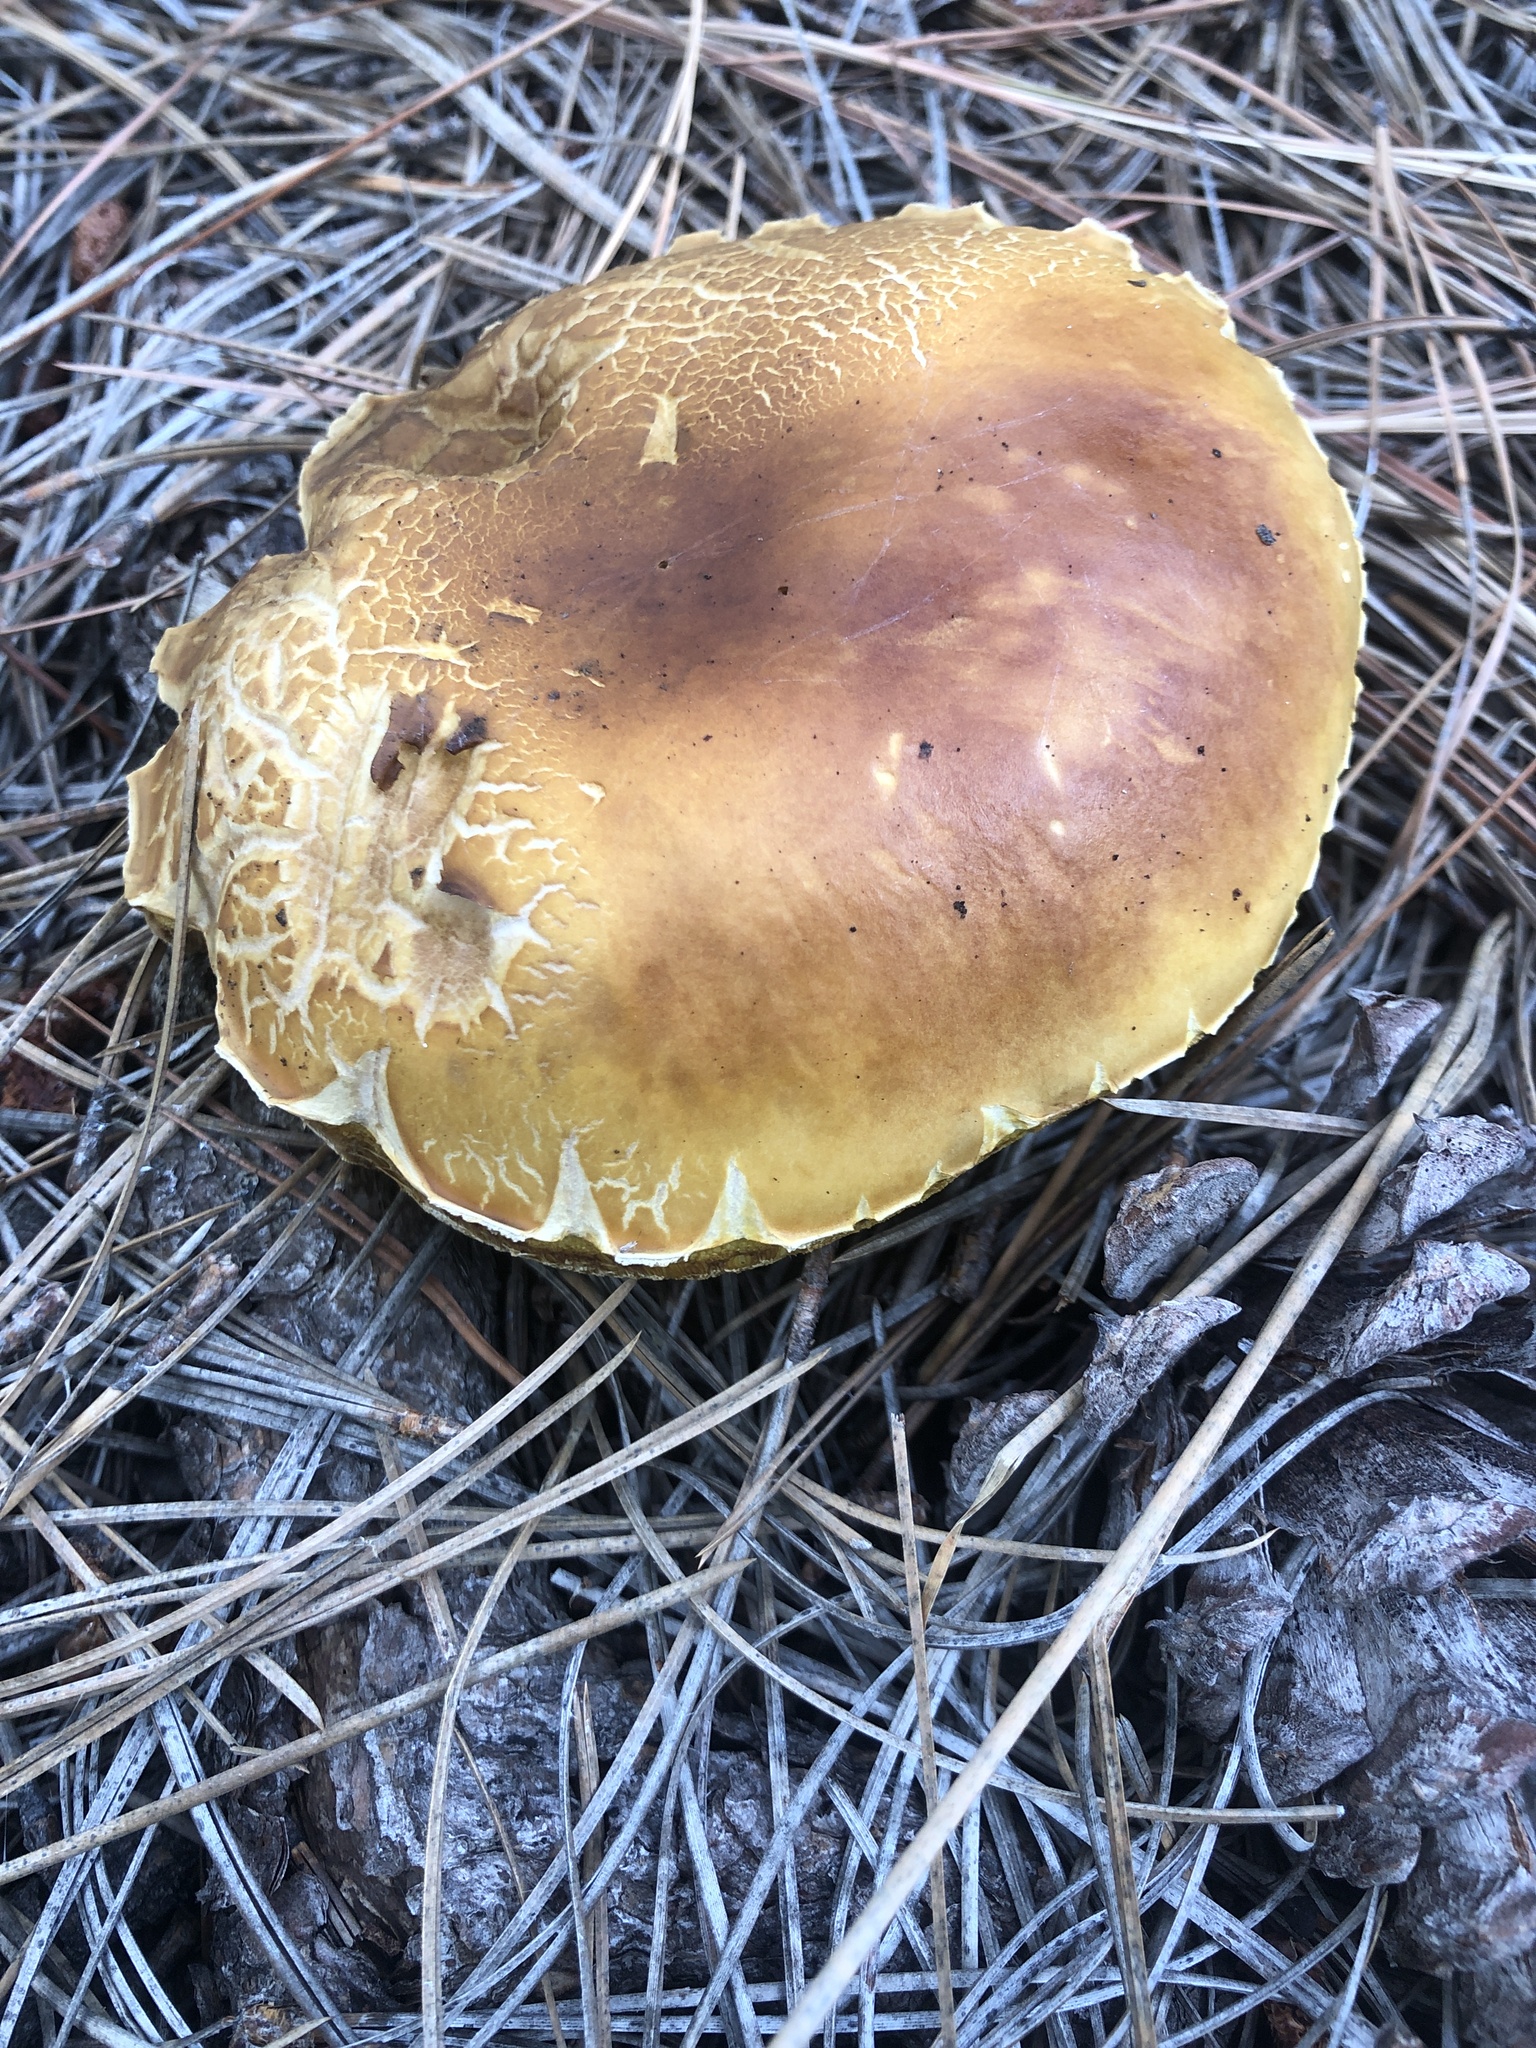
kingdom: Fungi
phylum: Basidiomycota
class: Agaricomycetes
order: Boletales
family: Boletaceae
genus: Boletus
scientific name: Boletus rubriceps
